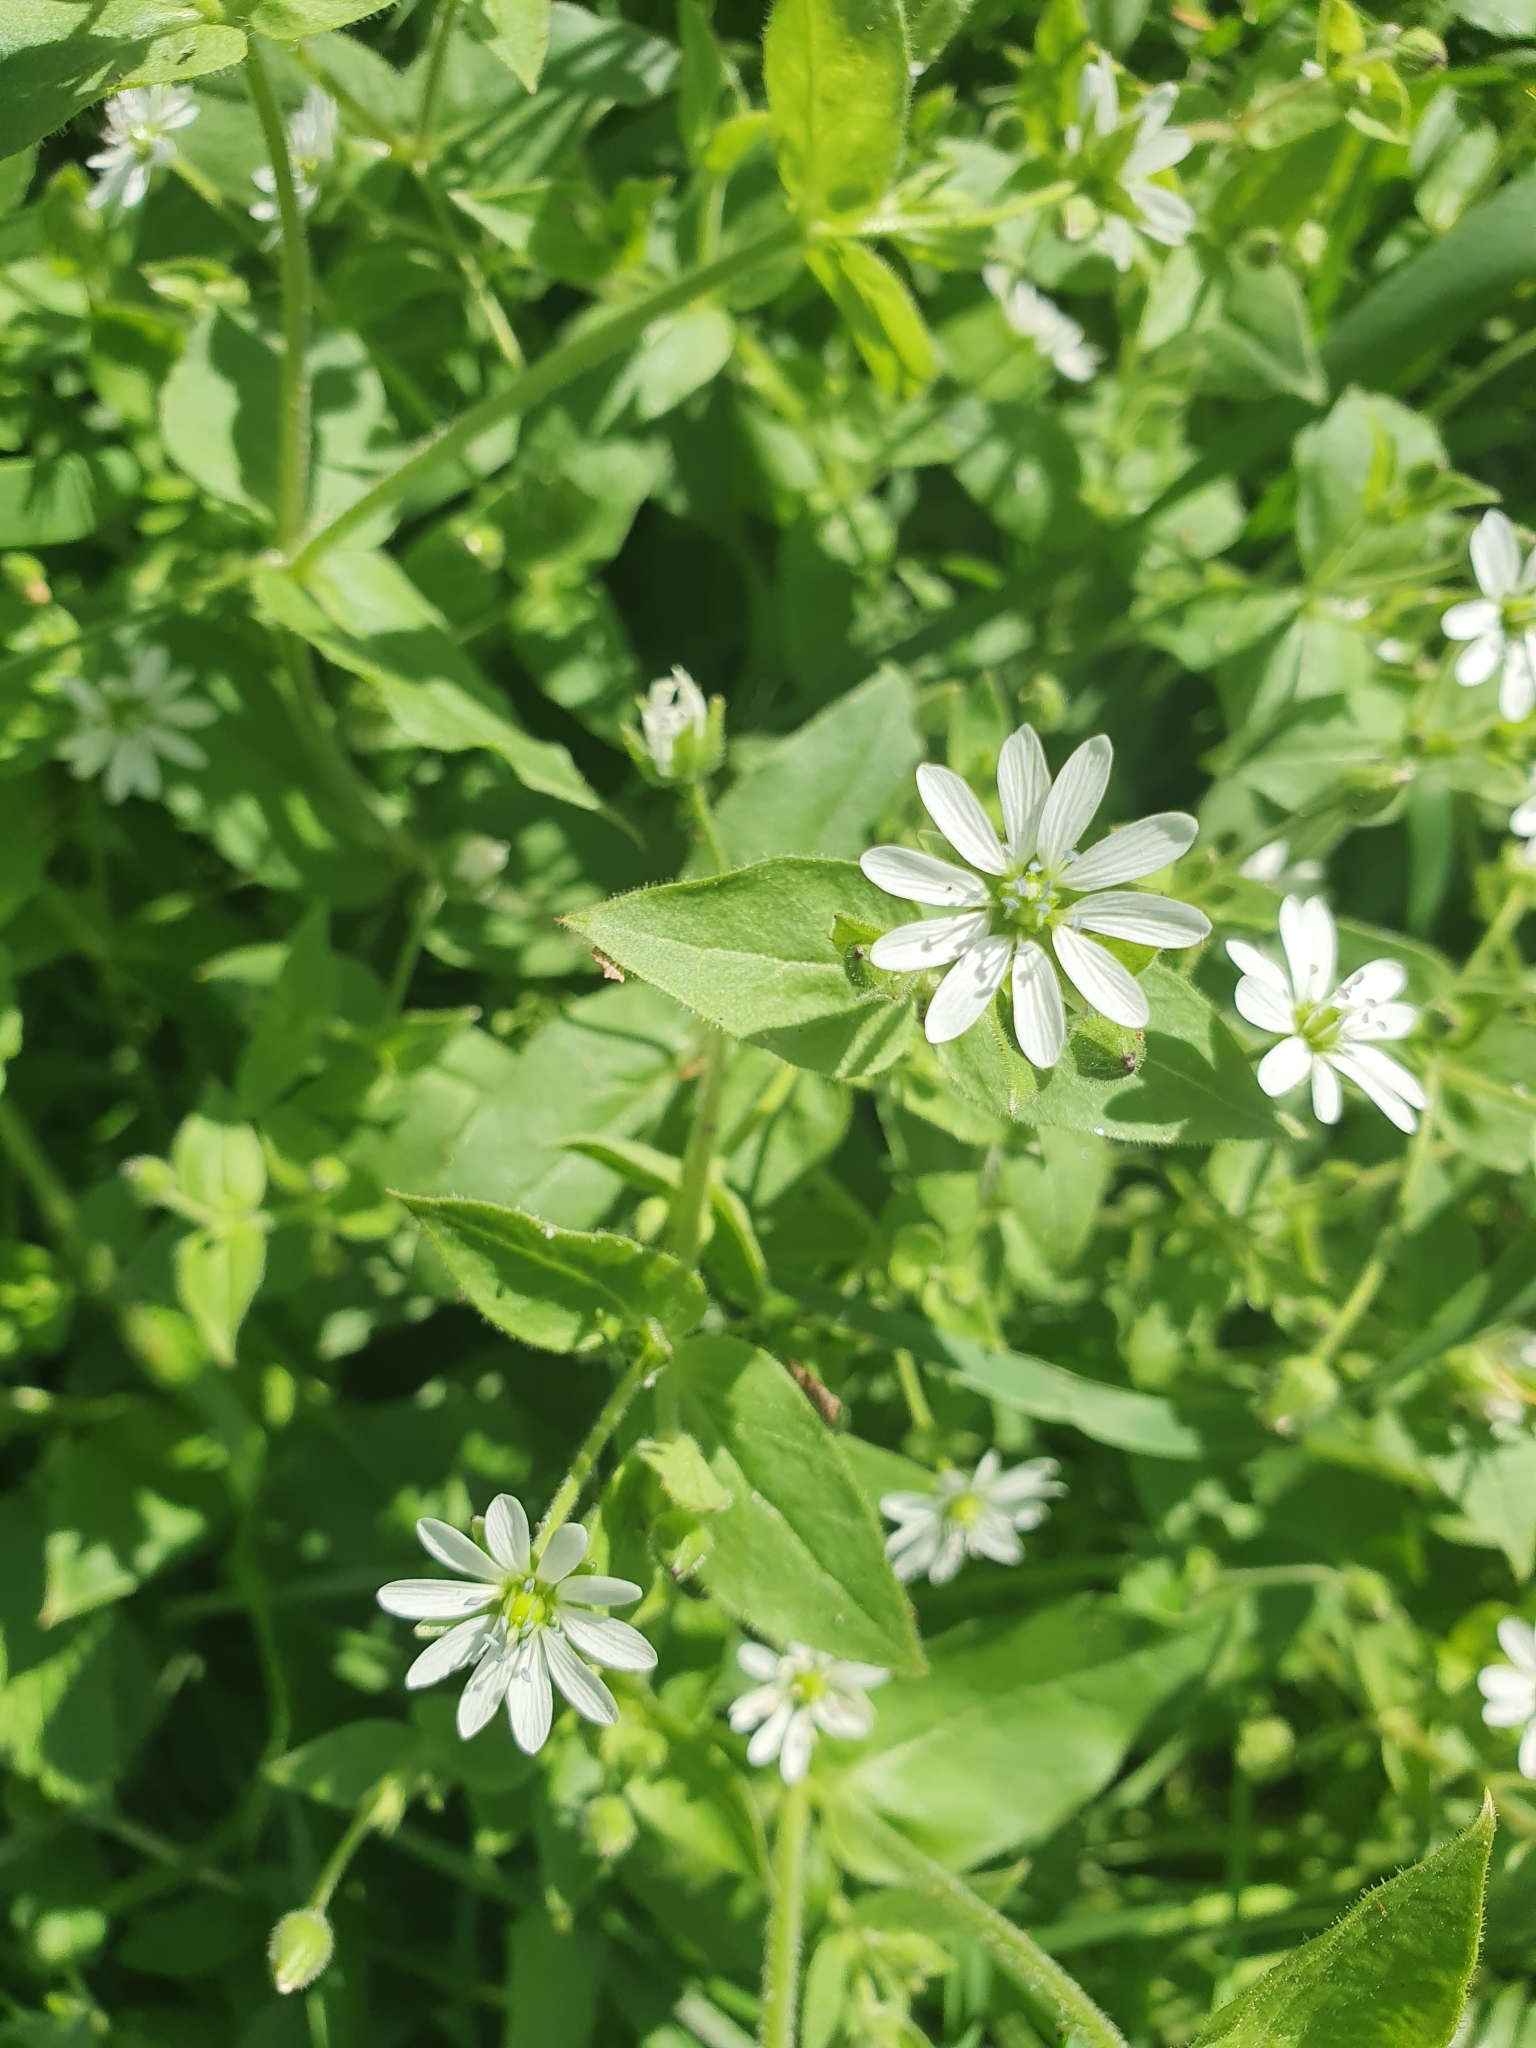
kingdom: Plantae
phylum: Tracheophyta
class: Magnoliopsida
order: Caryophyllales
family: Caryophyllaceae
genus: Stellaria
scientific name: Stellaria aquatica
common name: Water chickweed
